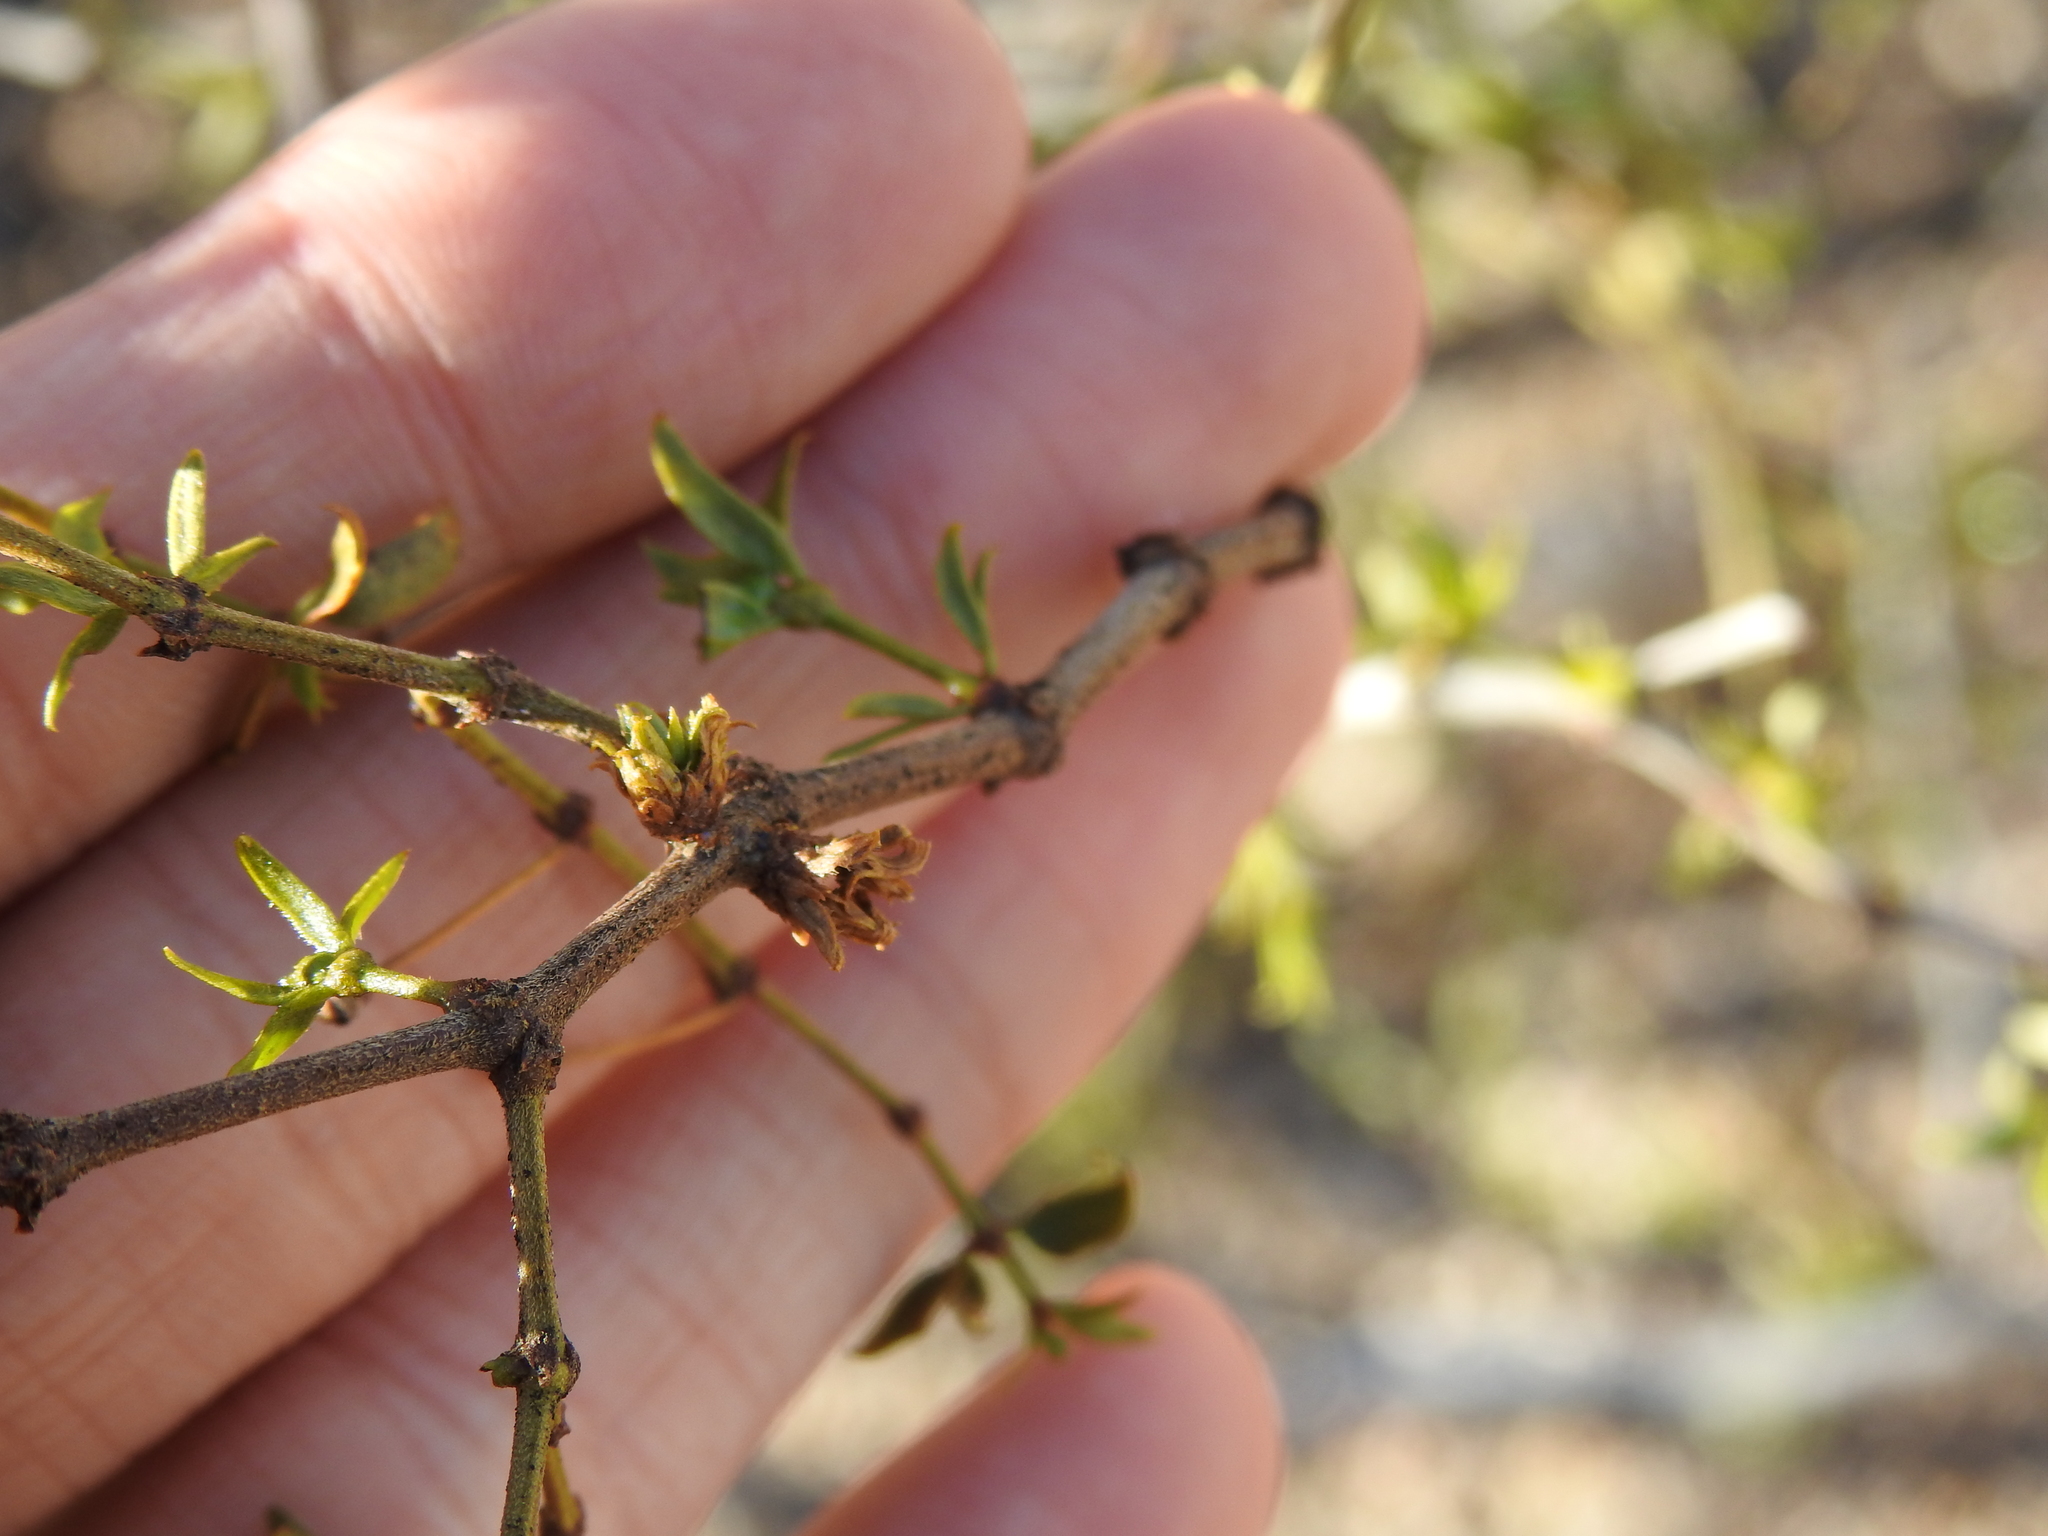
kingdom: Animalia
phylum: Arthropoda
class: Insecta
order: Diptera
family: Cecidomyiidae
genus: Asphondylia
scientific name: Asphondylia rosetta
